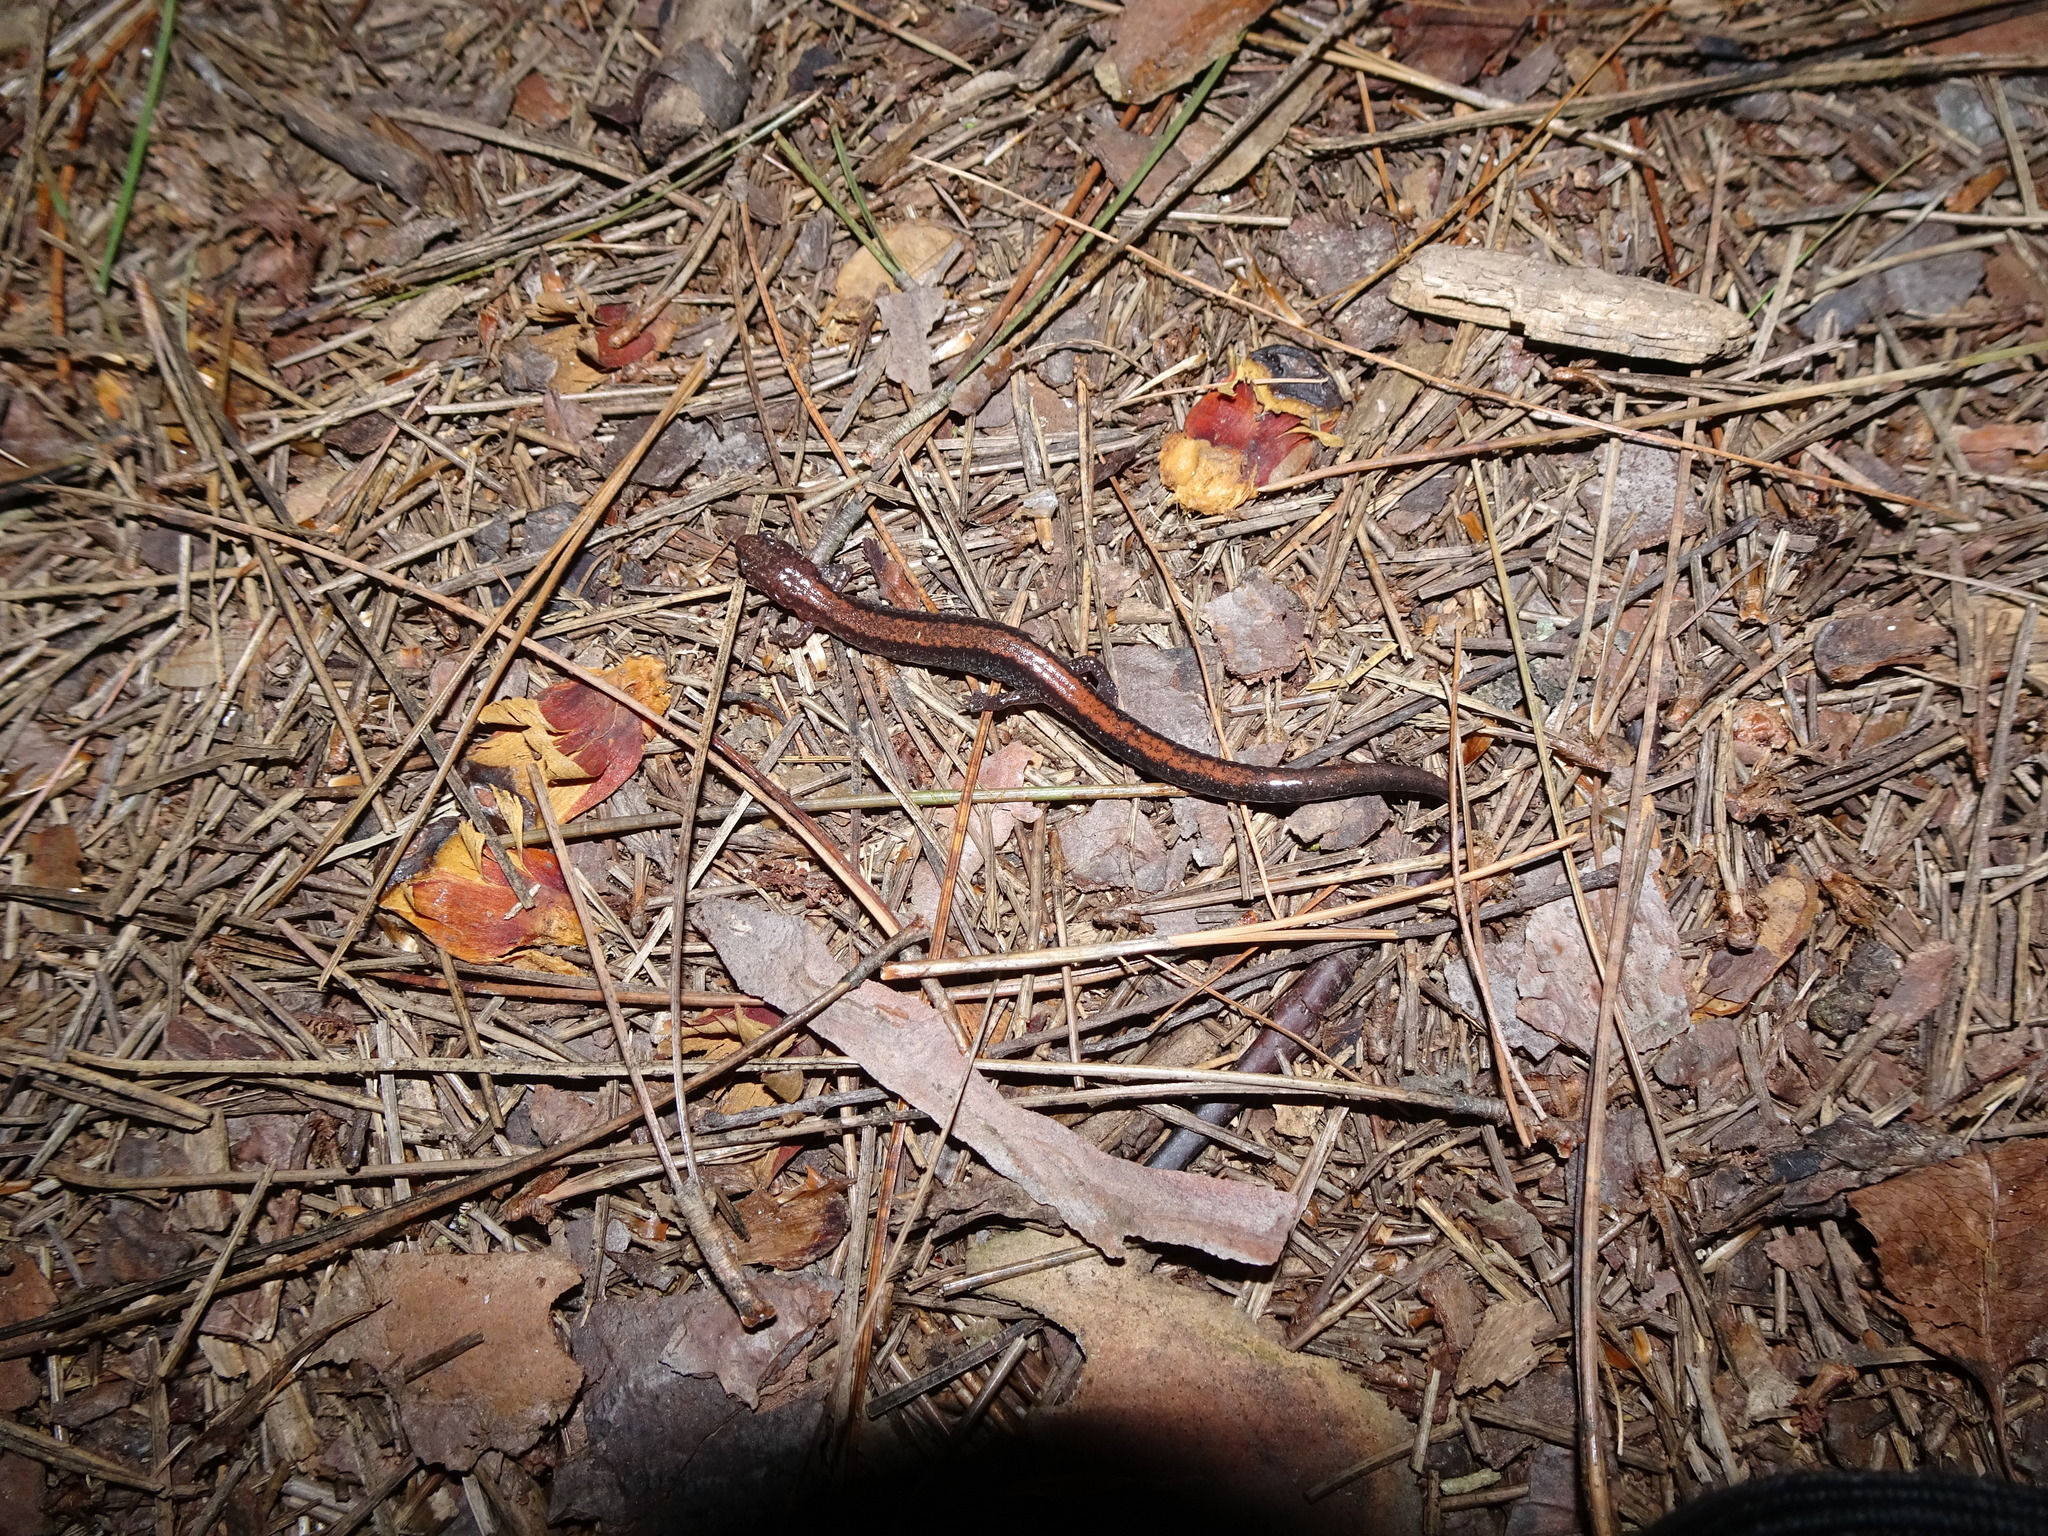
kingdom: Animalia
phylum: Chordata
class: Amphibia
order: Caudata
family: Plethodontidae
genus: Plethodon
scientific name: Plethodon cinereus
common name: Redback salamander
